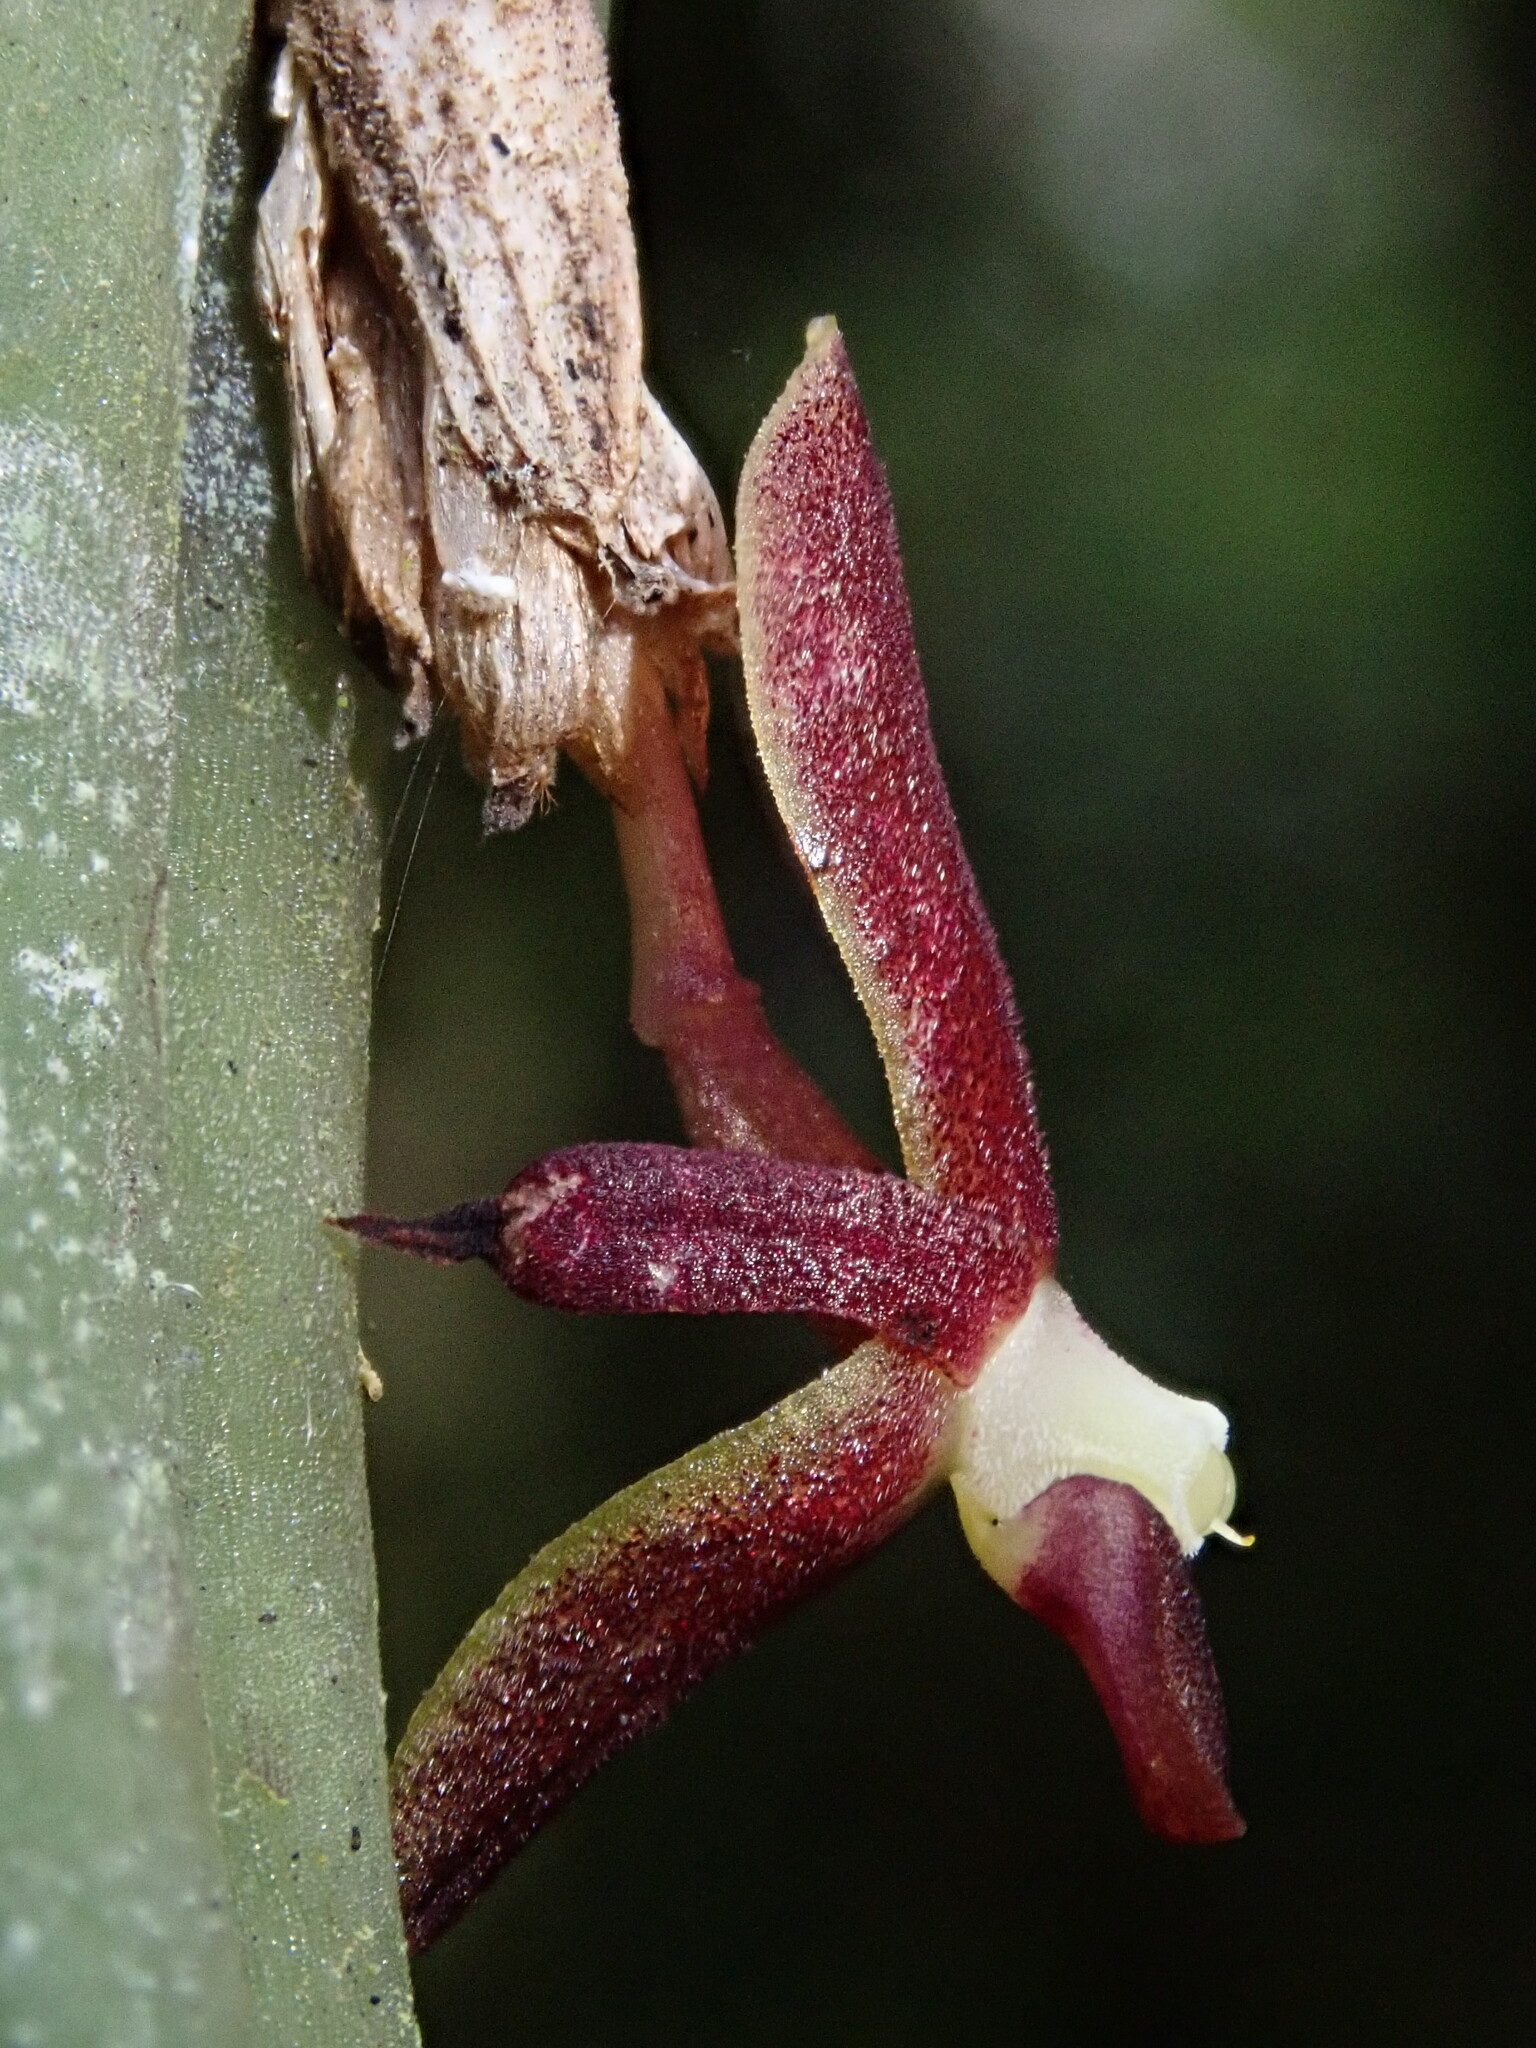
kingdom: Plantae
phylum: Tracheophyta
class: Liliopsida
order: Asparagales
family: Orchidaceae
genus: Pleurothallis
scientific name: Pleurothallis portillae
